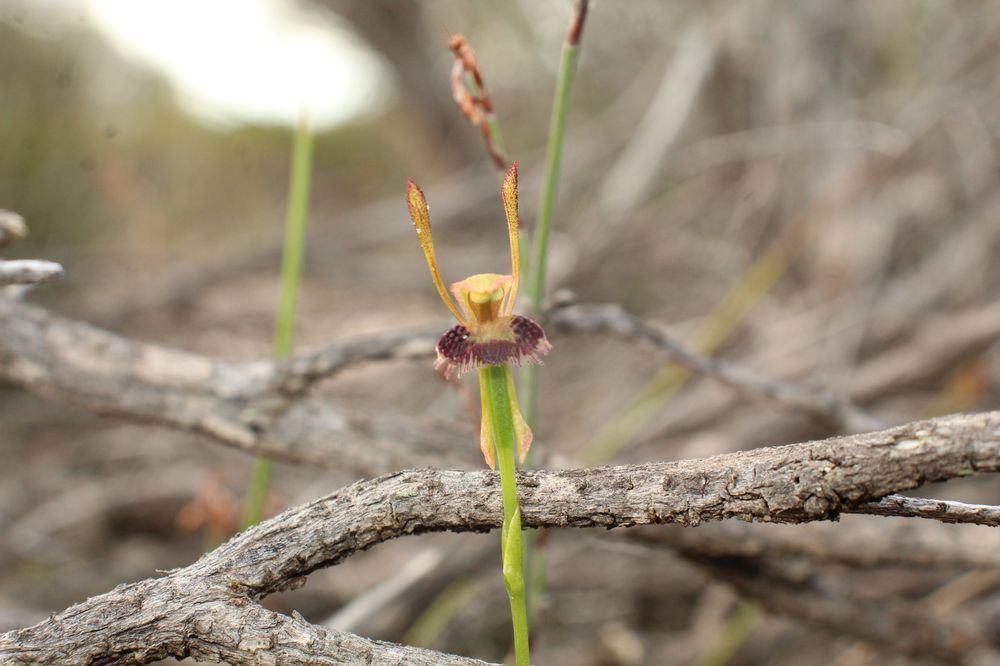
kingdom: Plantae
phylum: Tracheophyta
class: Liliopsida
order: Asparagales
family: Orchidaceae
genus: Leporella
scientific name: Leporella fimbriata
